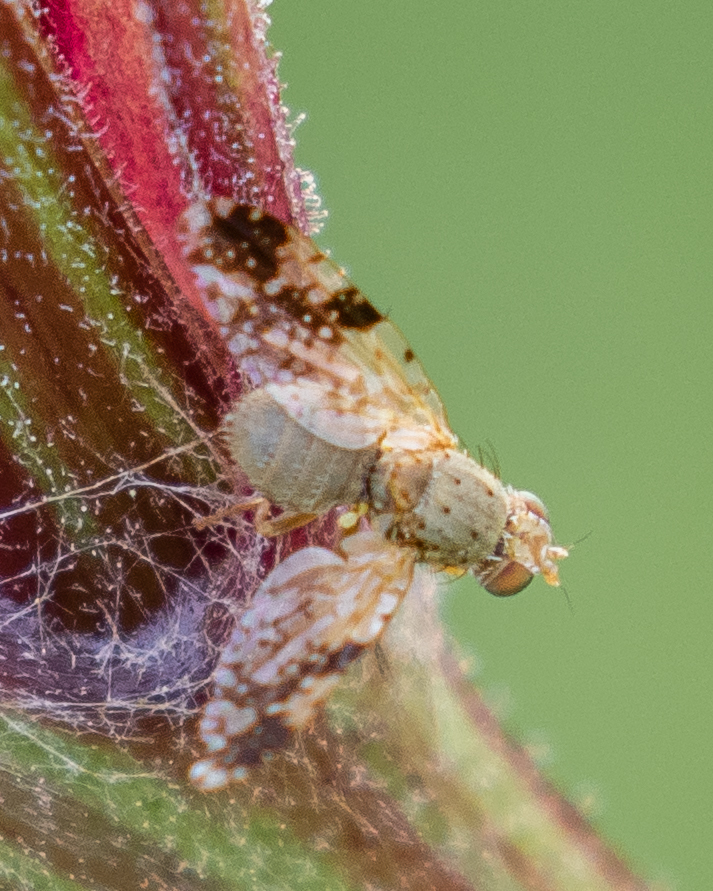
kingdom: Animalia
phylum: Arthropoda
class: Insecta
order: Diptera
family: Tephritidae
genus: Tephritis
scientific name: Tephritis bardanae
